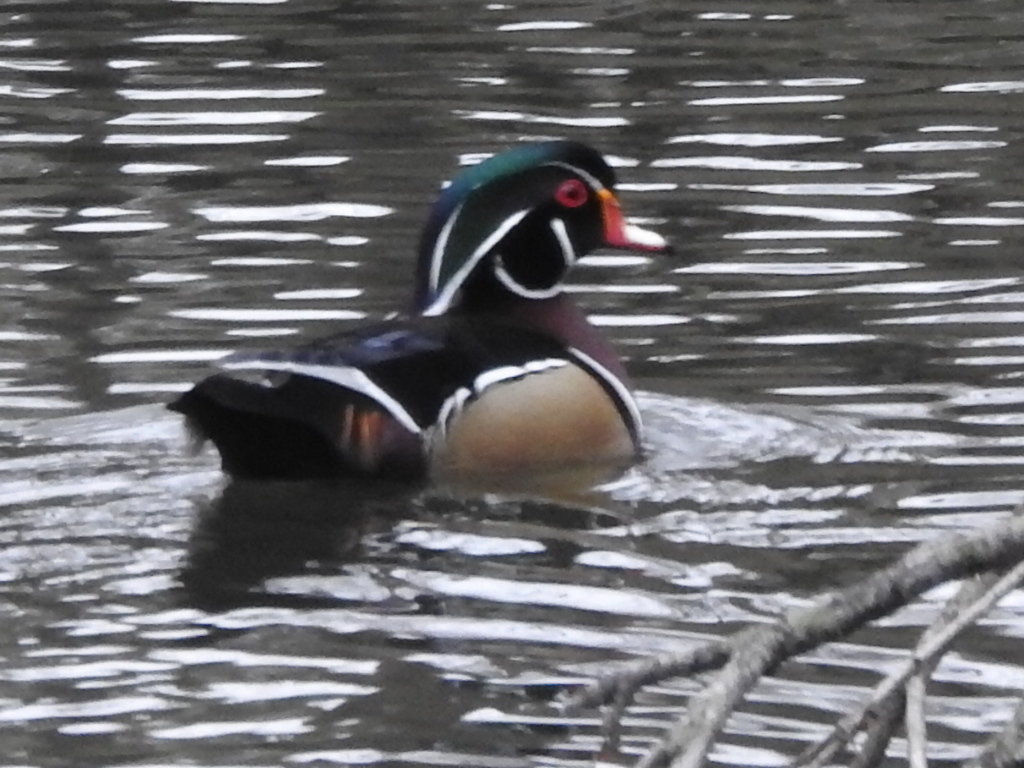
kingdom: Animalia
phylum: Chordata
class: Aves
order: Anseriformes
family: Anatidae
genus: Aix
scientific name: Aix sponsa
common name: Wood duck
